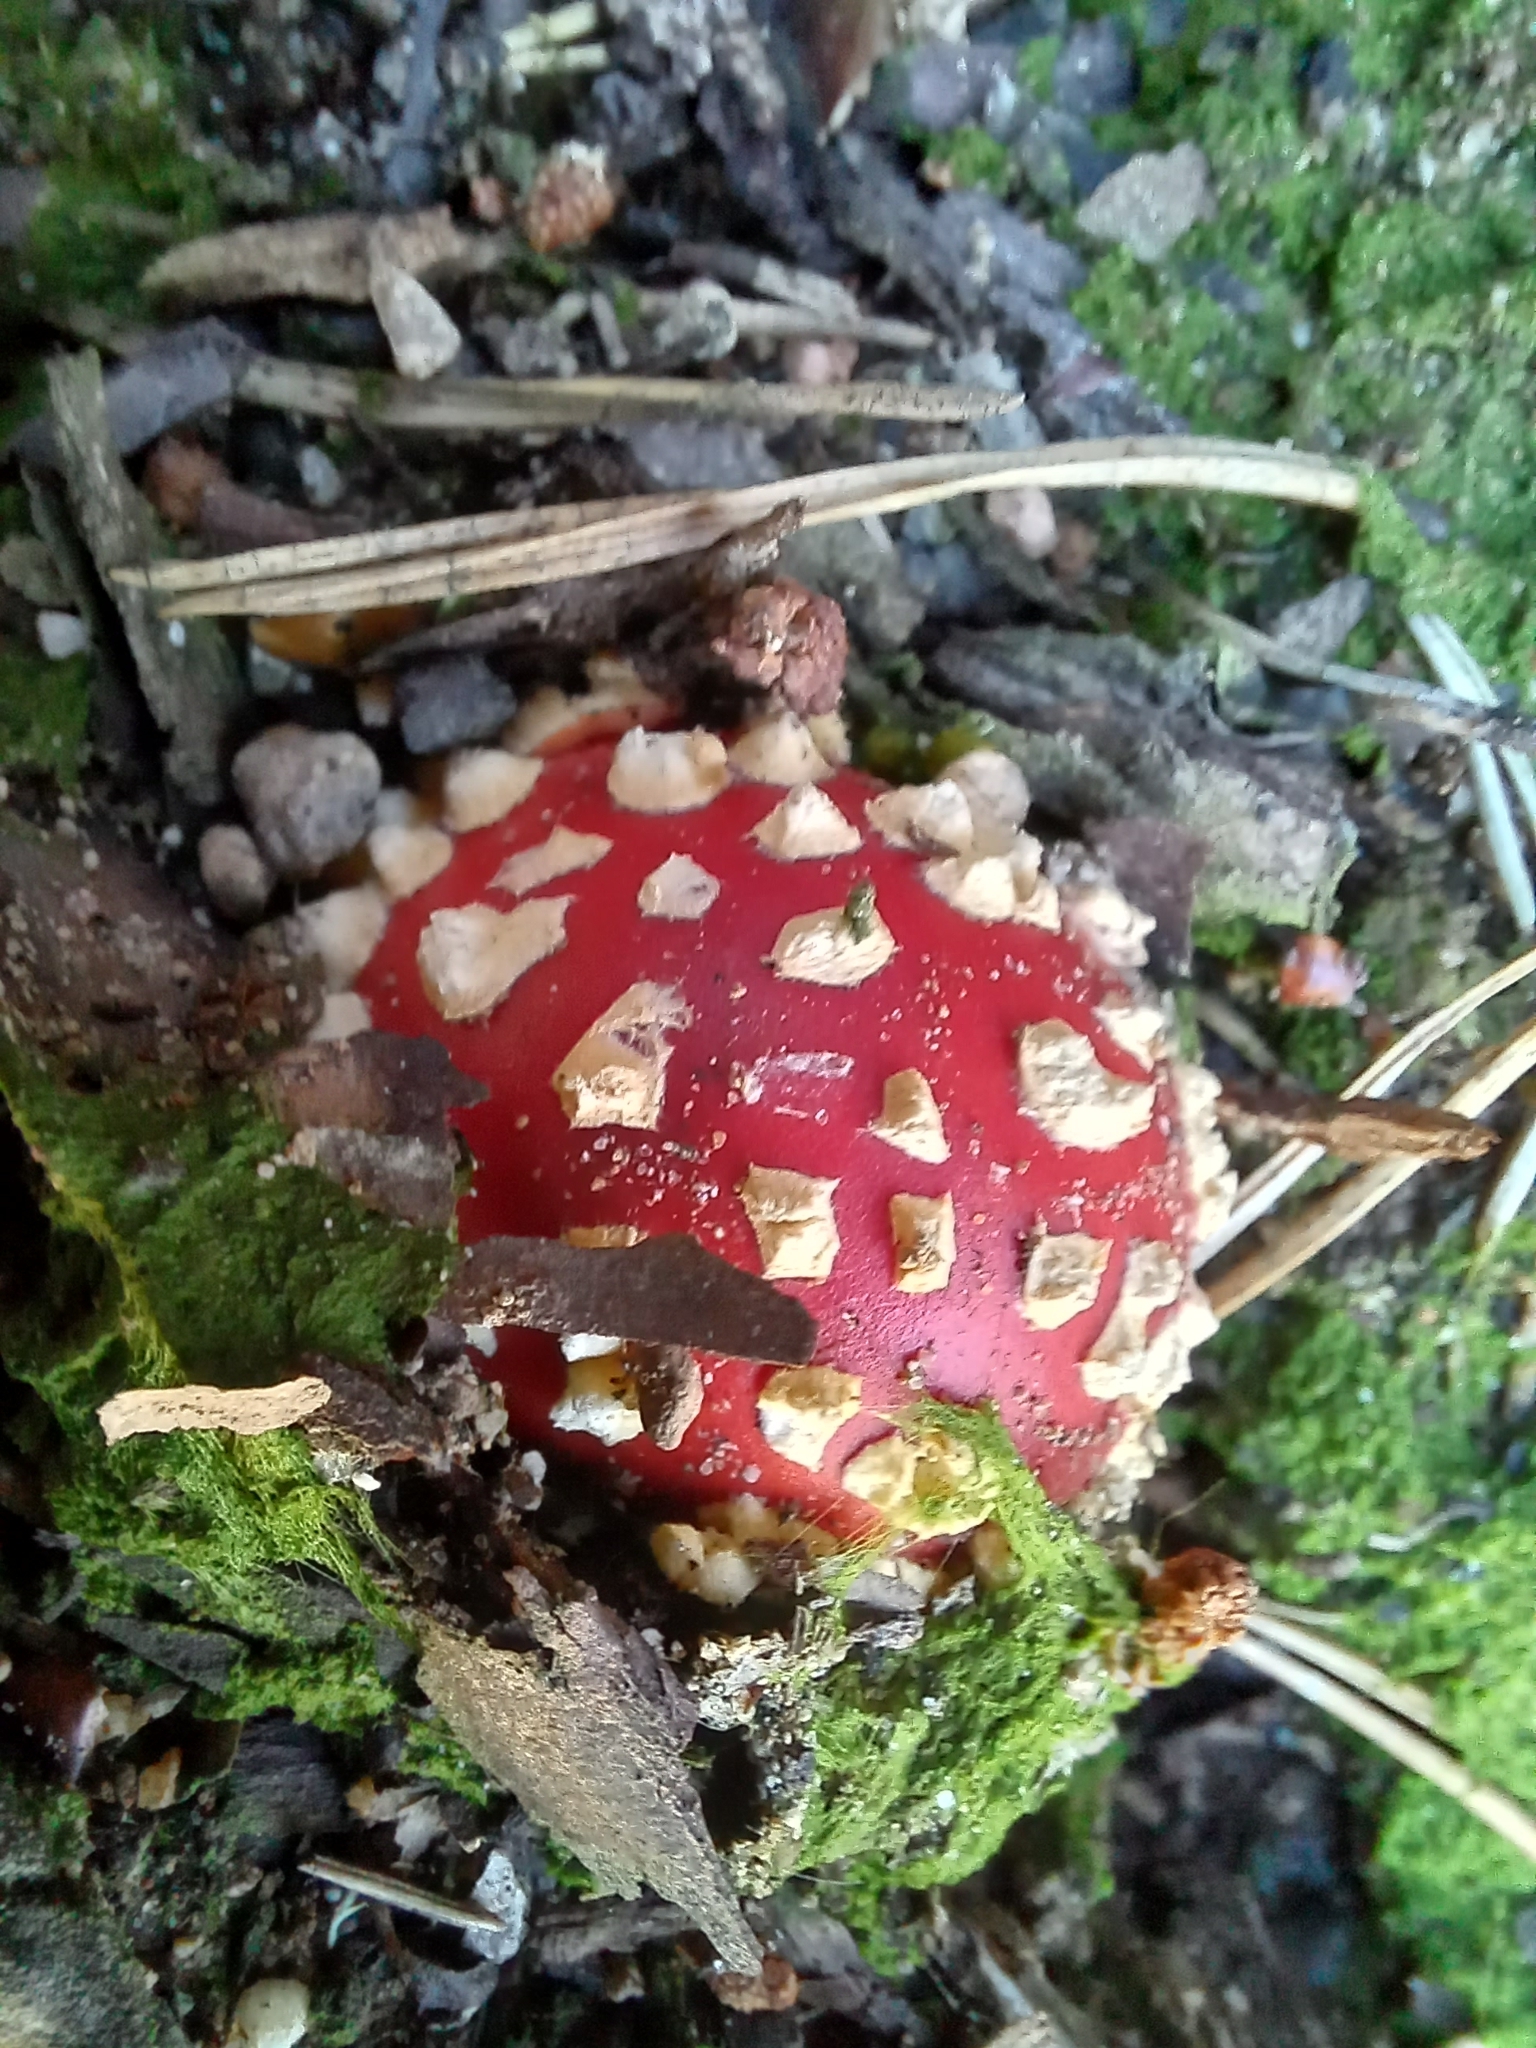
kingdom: Fungi
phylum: Basidiomycota
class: Agaricomycetes
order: Agaricales
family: Amanitaceae
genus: Amanita
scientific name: Amanita muscaria
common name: Fly agaric
